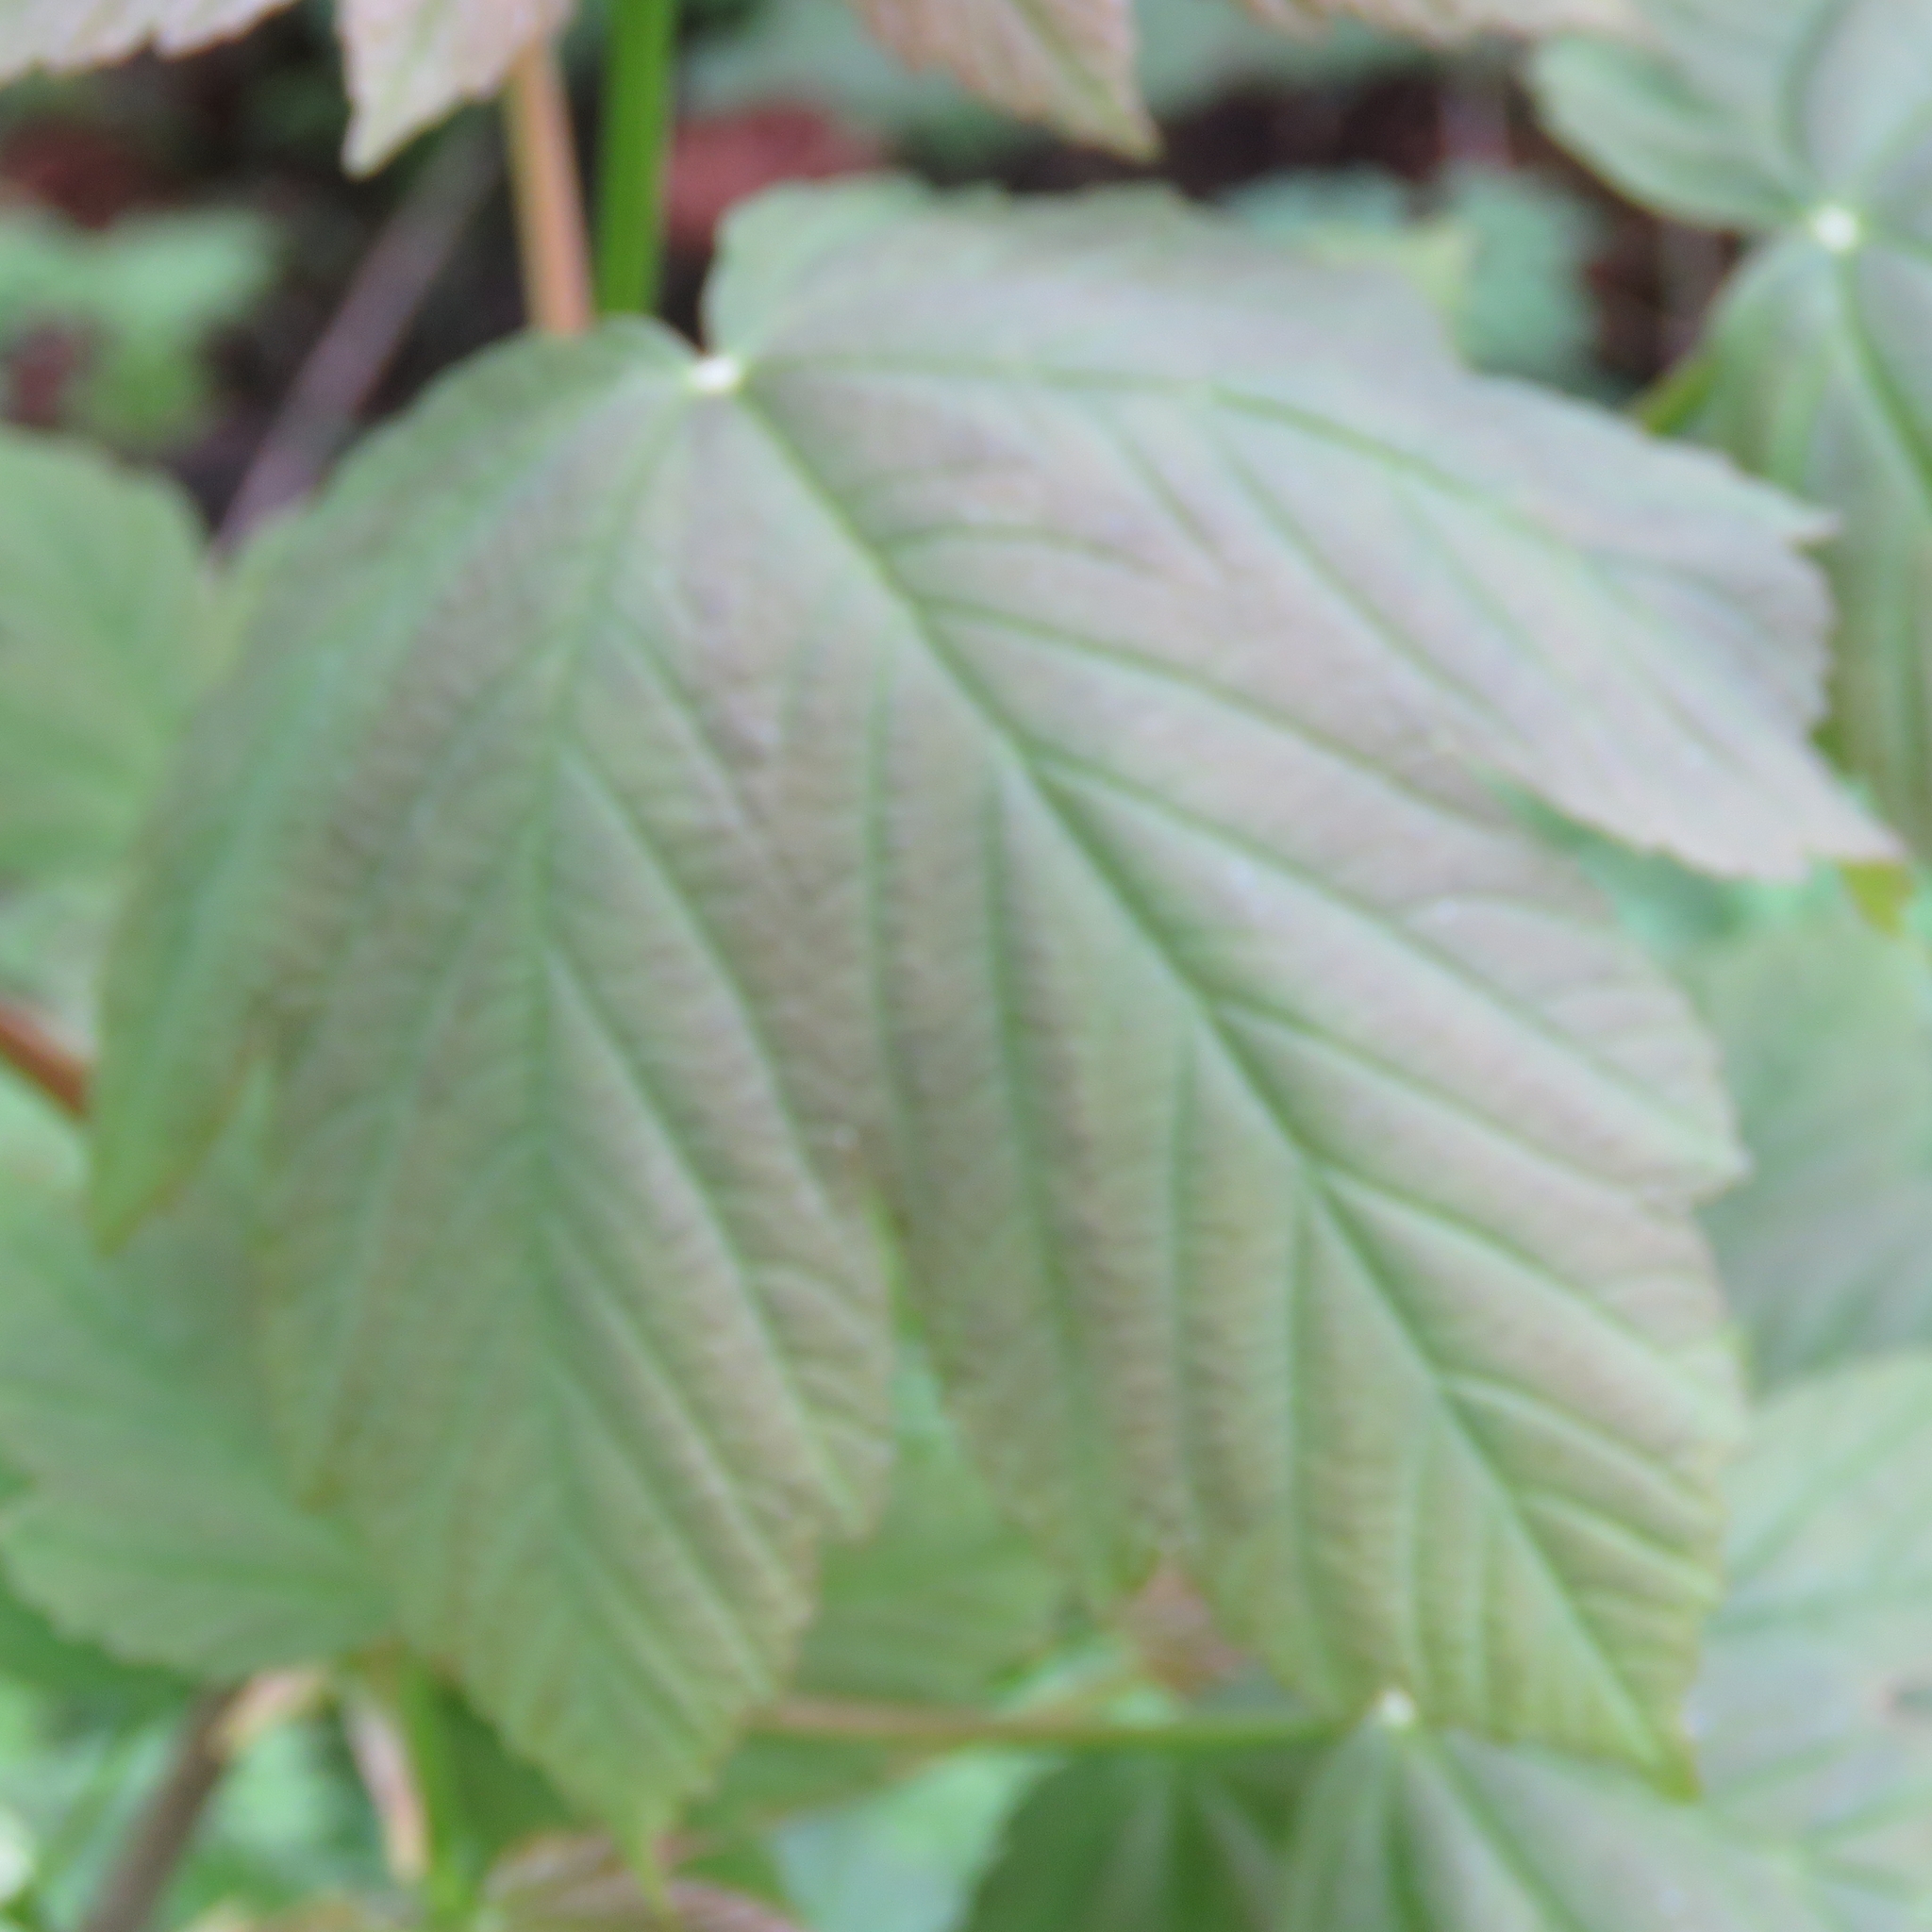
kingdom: Plantae
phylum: Tracheophyta
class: Magnoliopsida
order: Sapindales
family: Sapindaceae
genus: Acer
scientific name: Acer pseudoplatanus
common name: Sycamore
